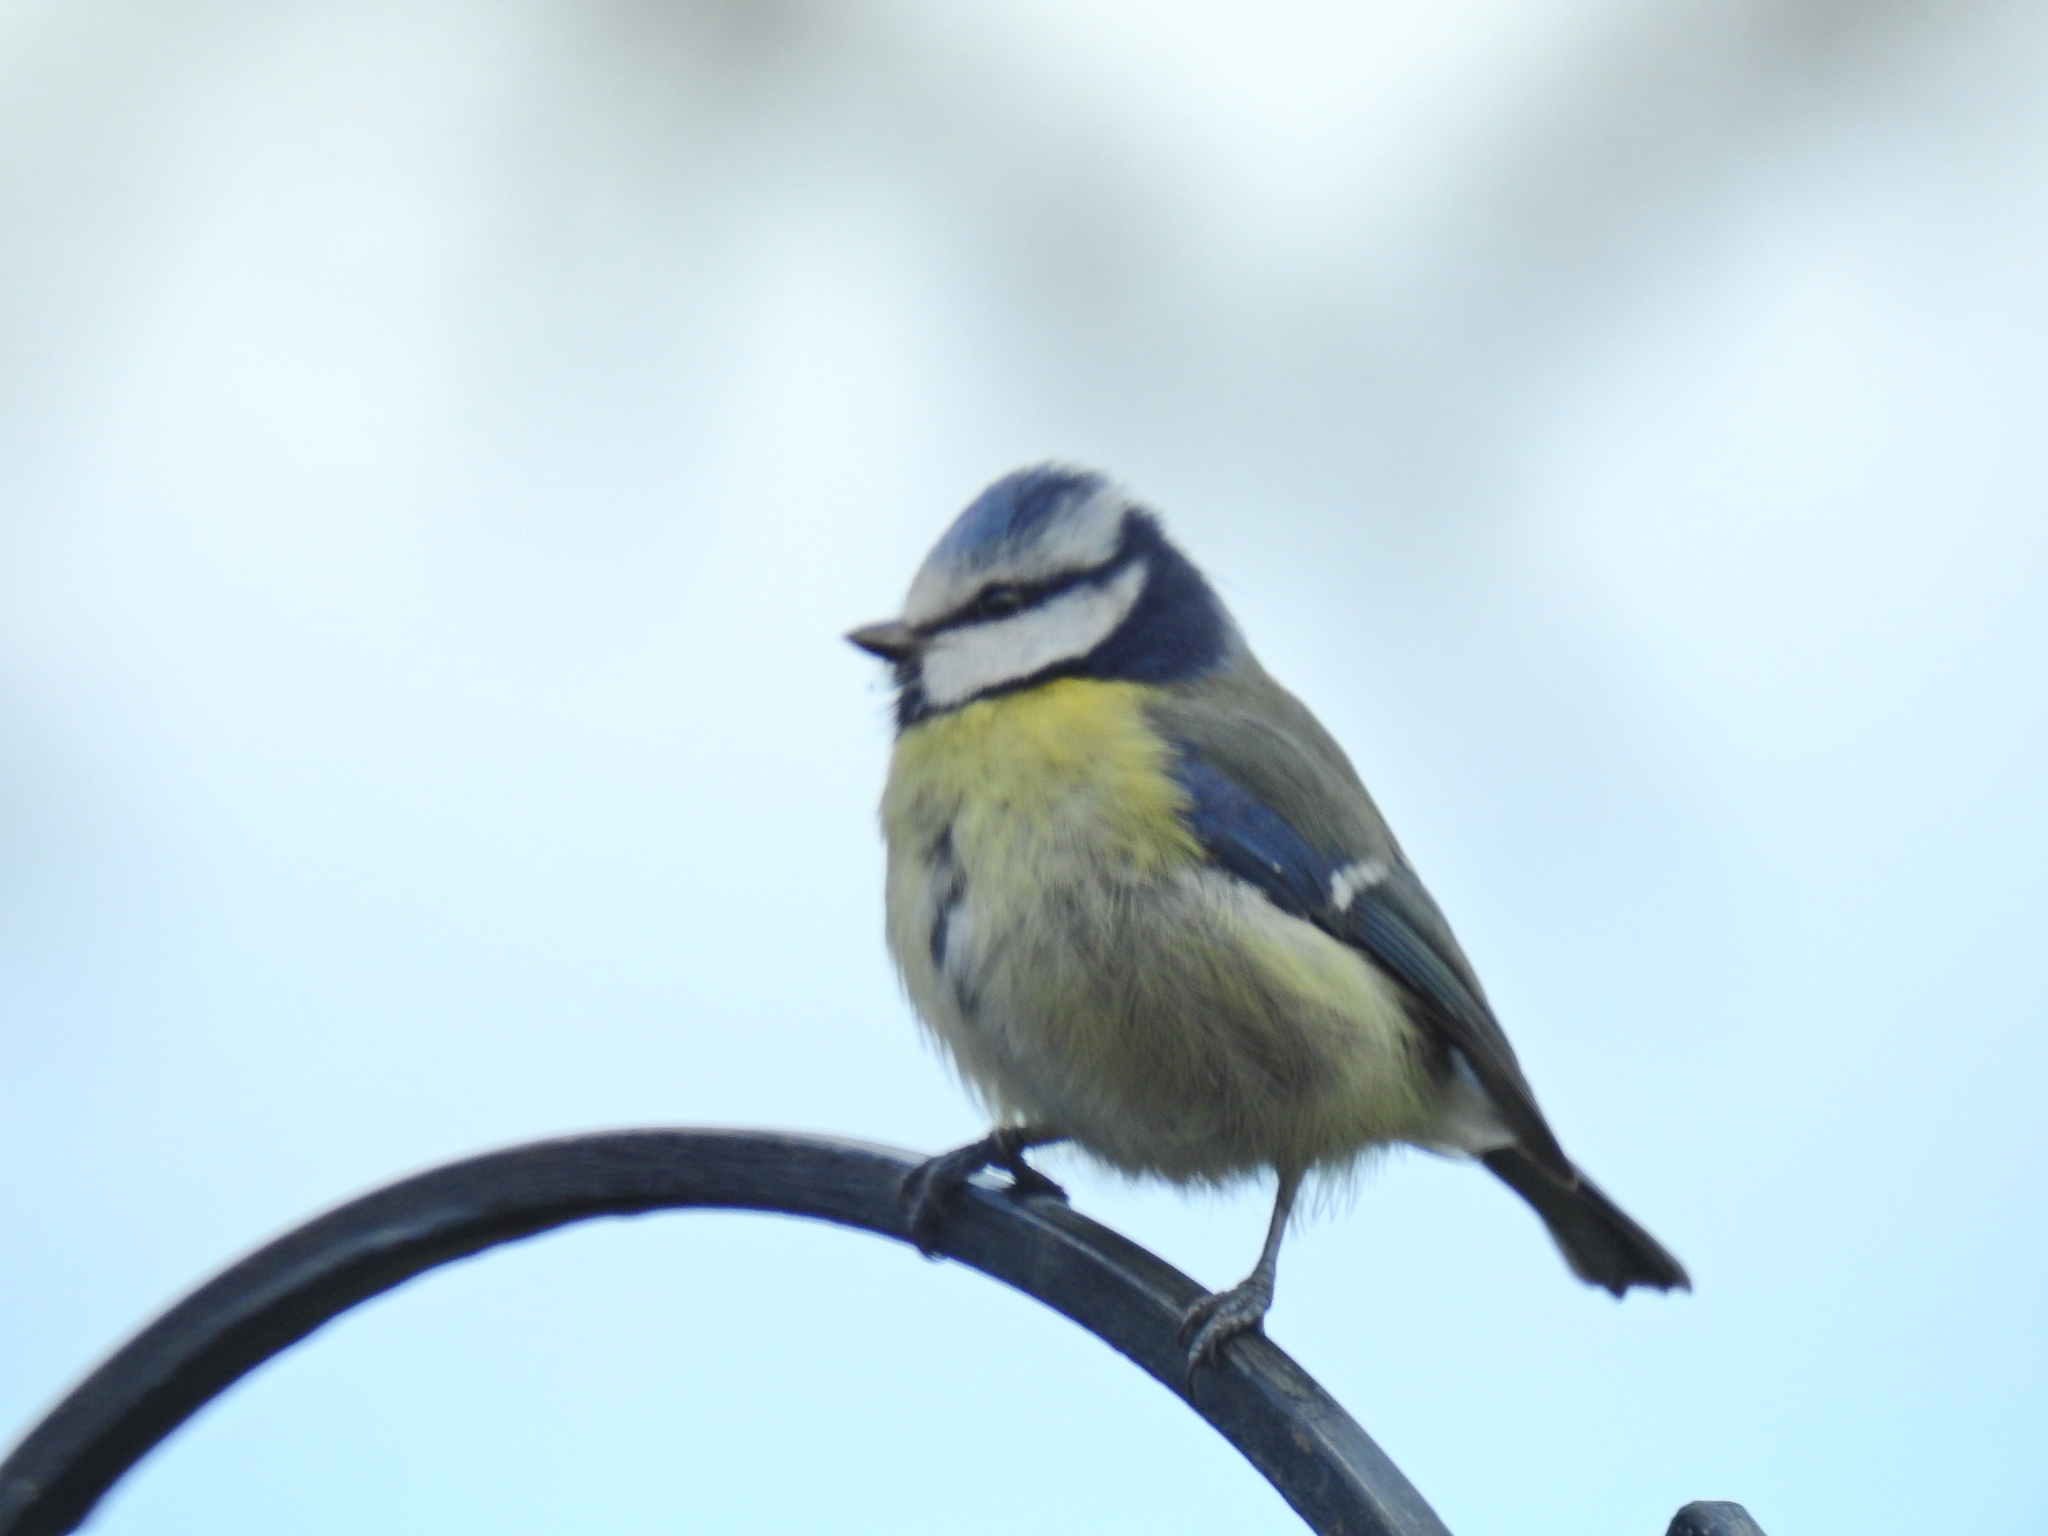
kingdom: Animalia
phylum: Chordata
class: Aves
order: Passeriformes
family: Paridae
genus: Cyanistes
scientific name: Cyanistes caeruleus
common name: Eurasian blue tit
